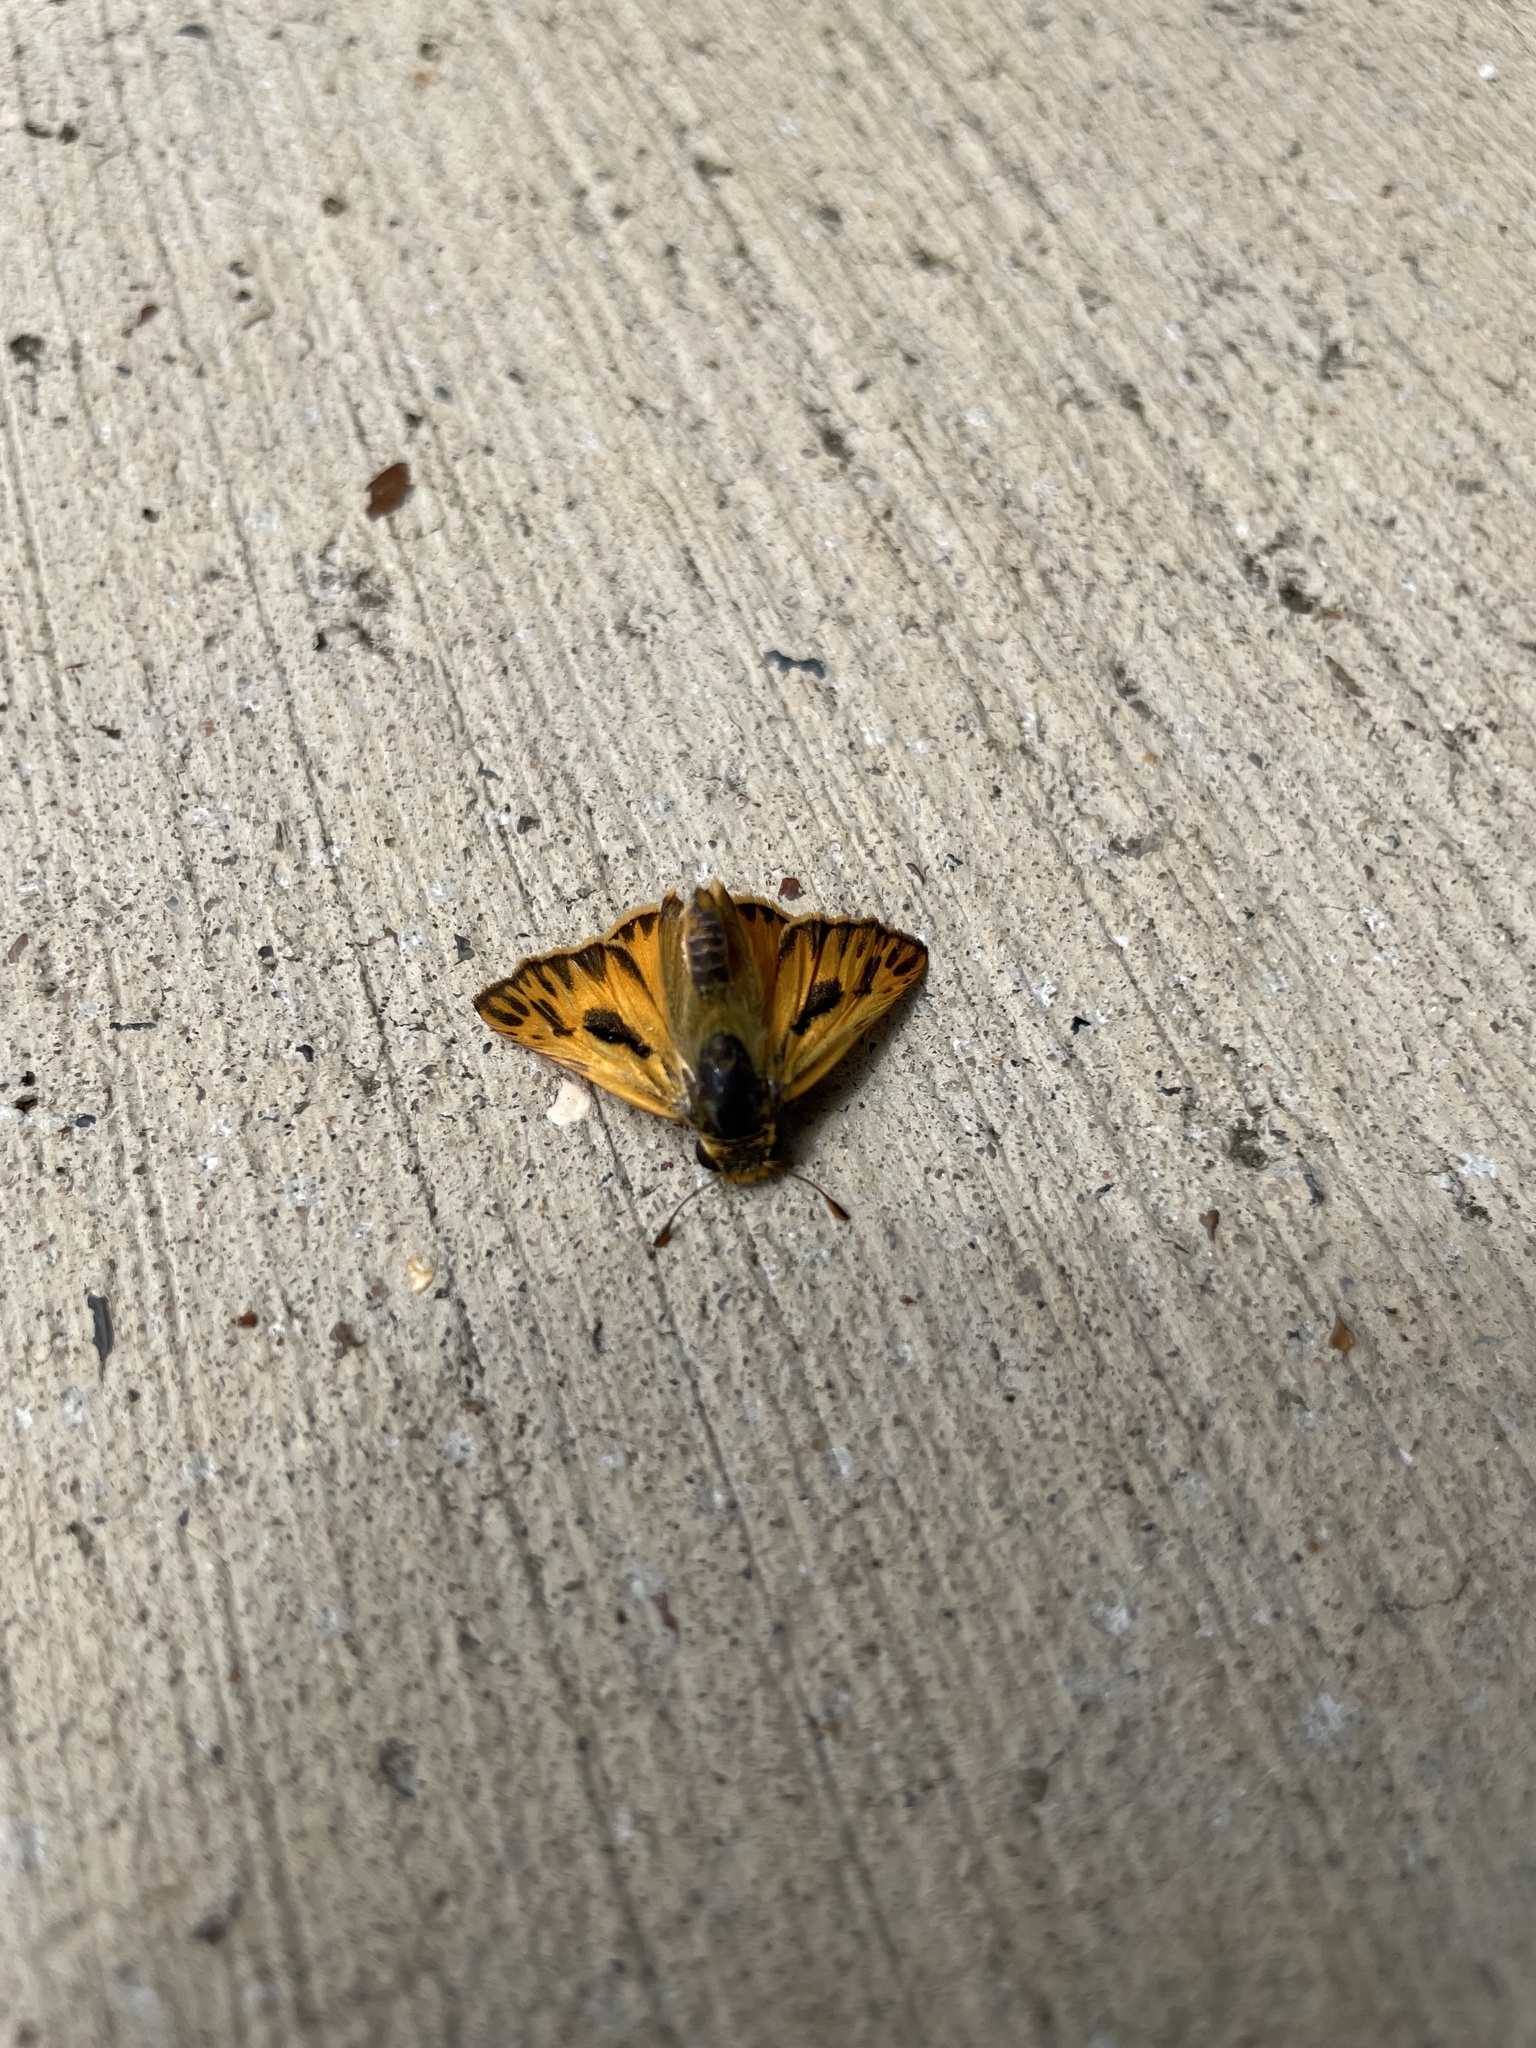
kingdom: Animalia
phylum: Arthropoda
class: Insecta
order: Lepidoptera
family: Hesperiidae
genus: Hylephila
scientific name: Hylephila phyleus
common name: Fiery skipper
